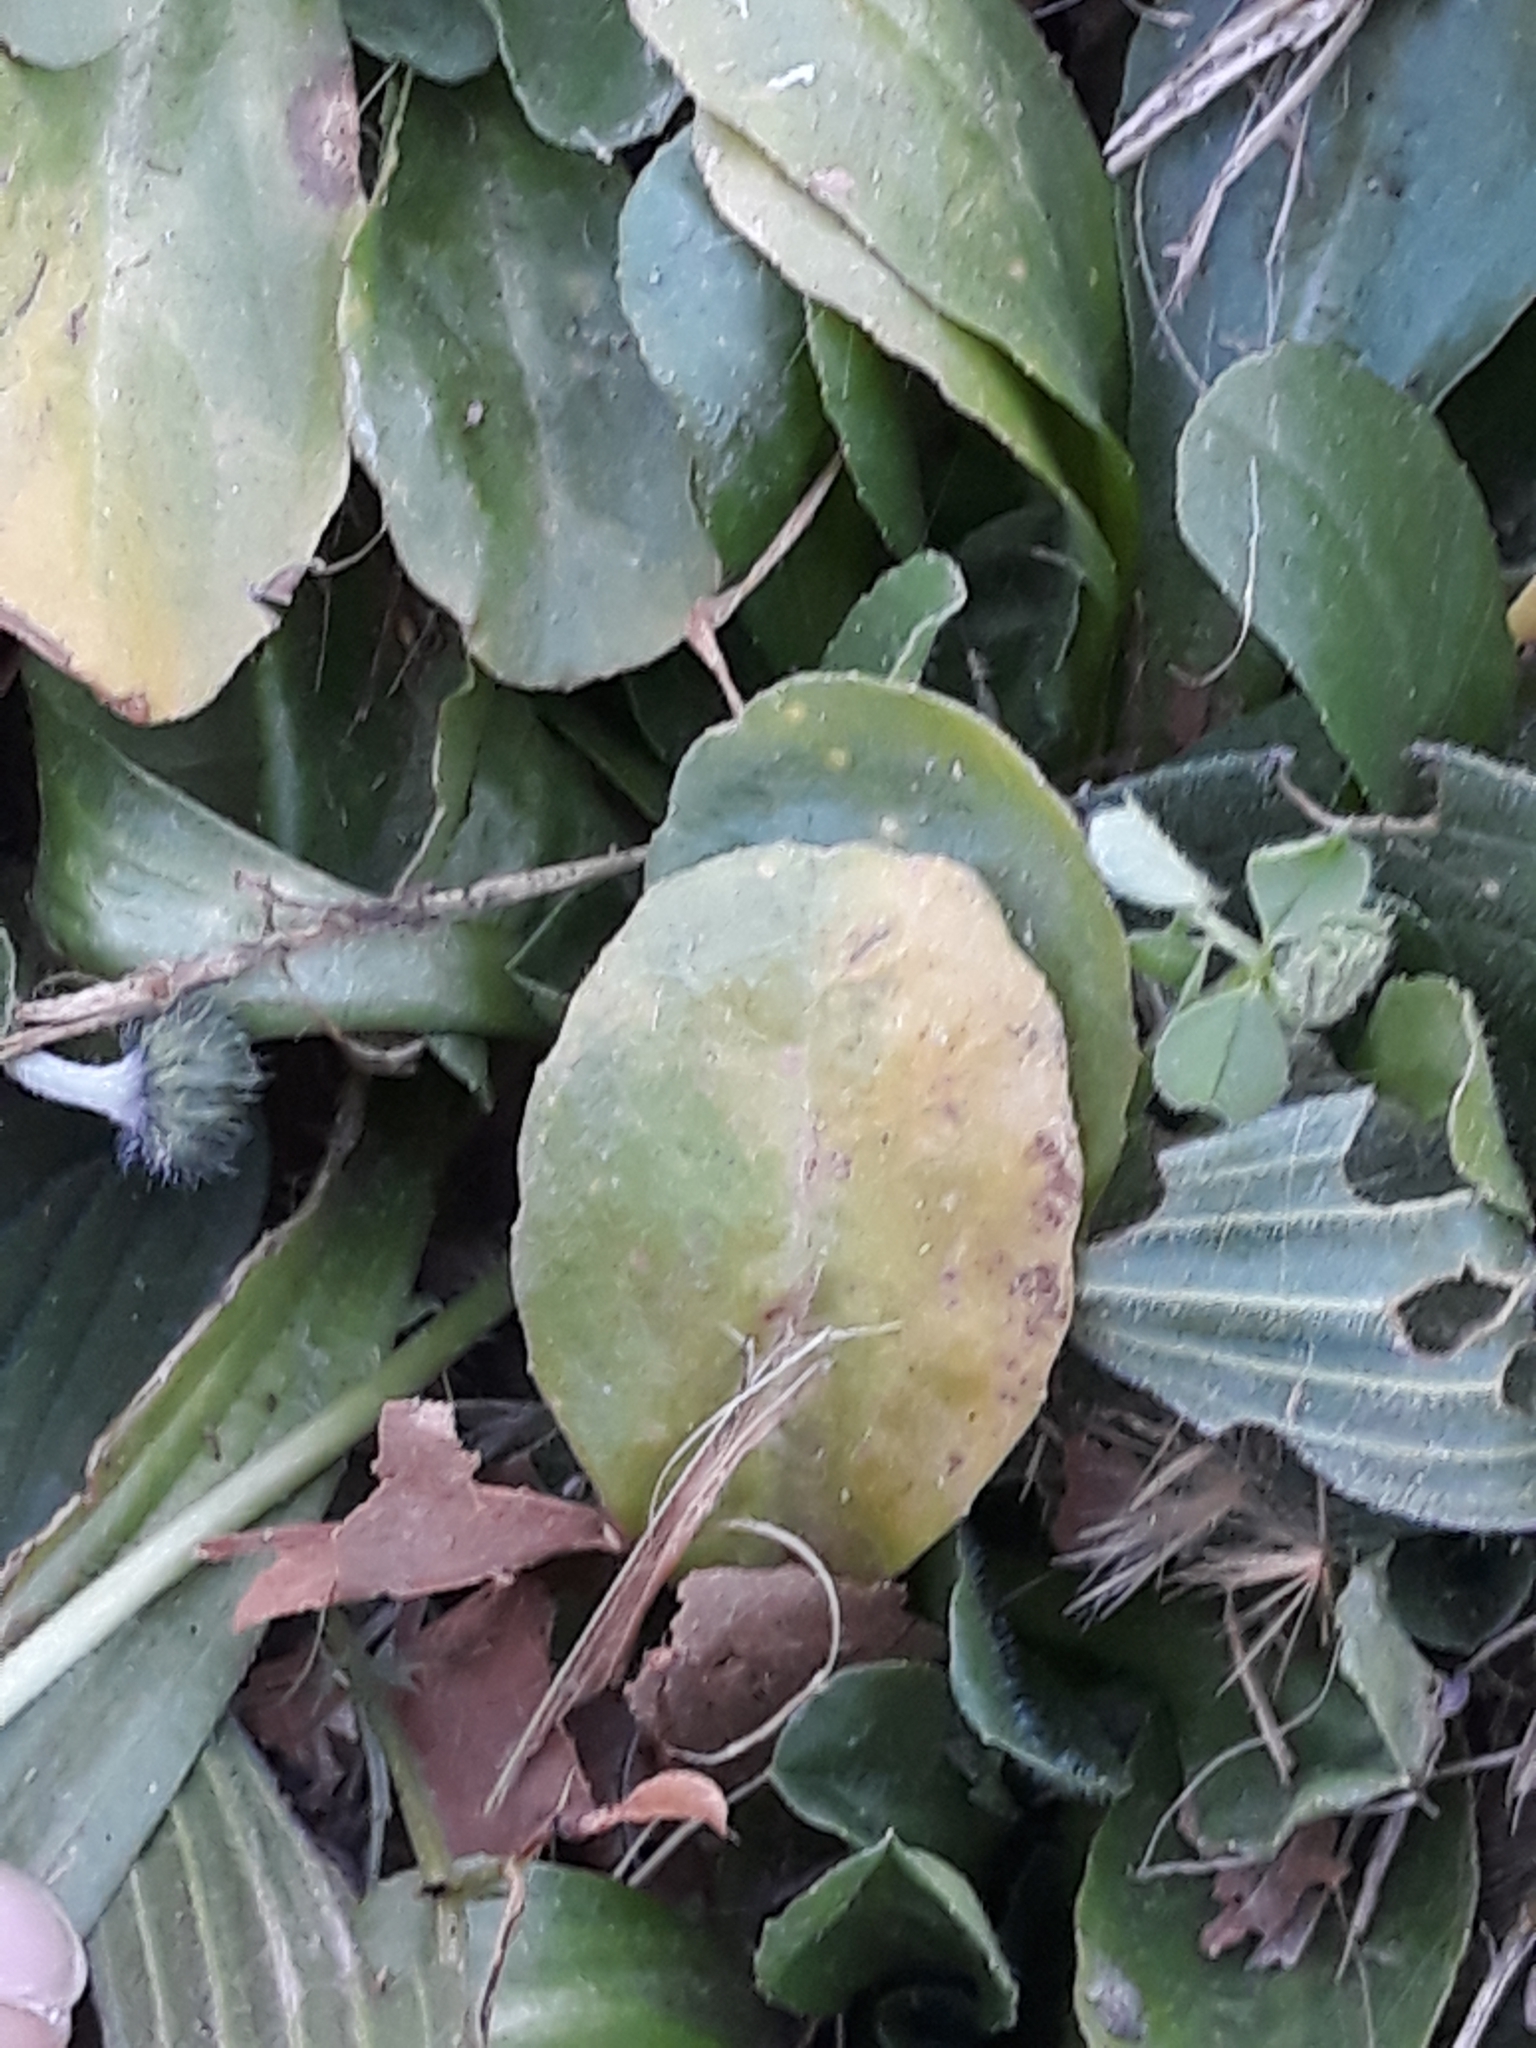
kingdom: Plantae
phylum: Tracheophyta
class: Magnoliopsida
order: Asterales
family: Asteraceae
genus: Bellis
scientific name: Bellis perennis
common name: Lawndaisy
